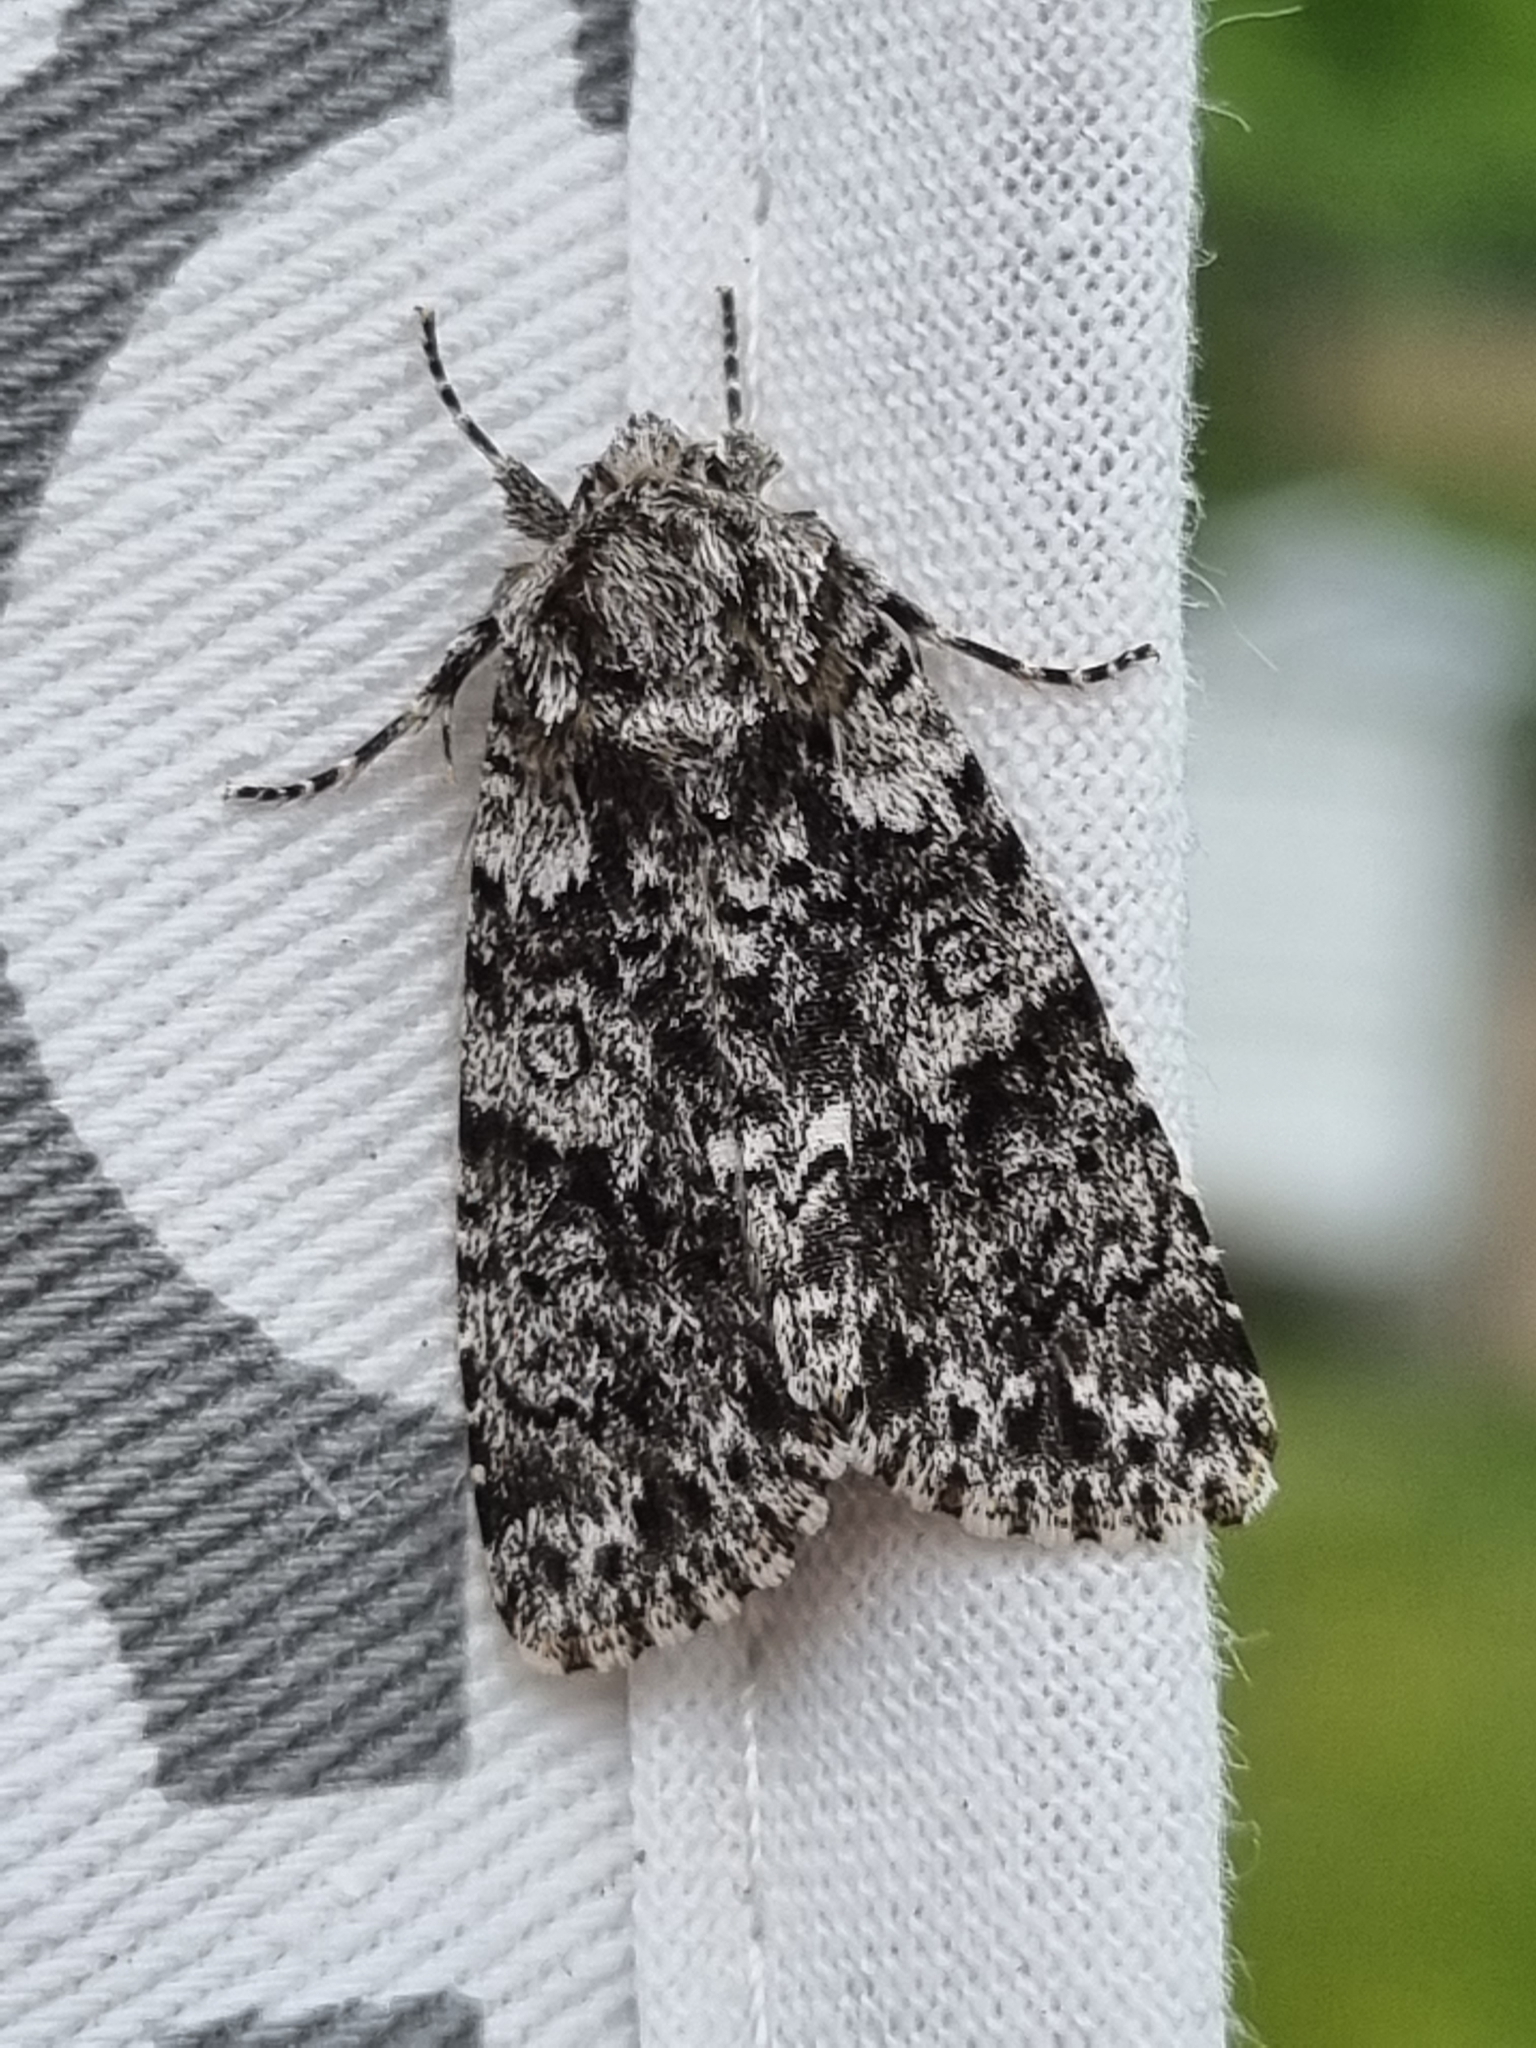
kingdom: Animalia
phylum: Arthropoda
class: Insecta
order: Lepidoptera
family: Noctuidae
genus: Acronicta
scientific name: Acronicta rumicis
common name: Knot grass
